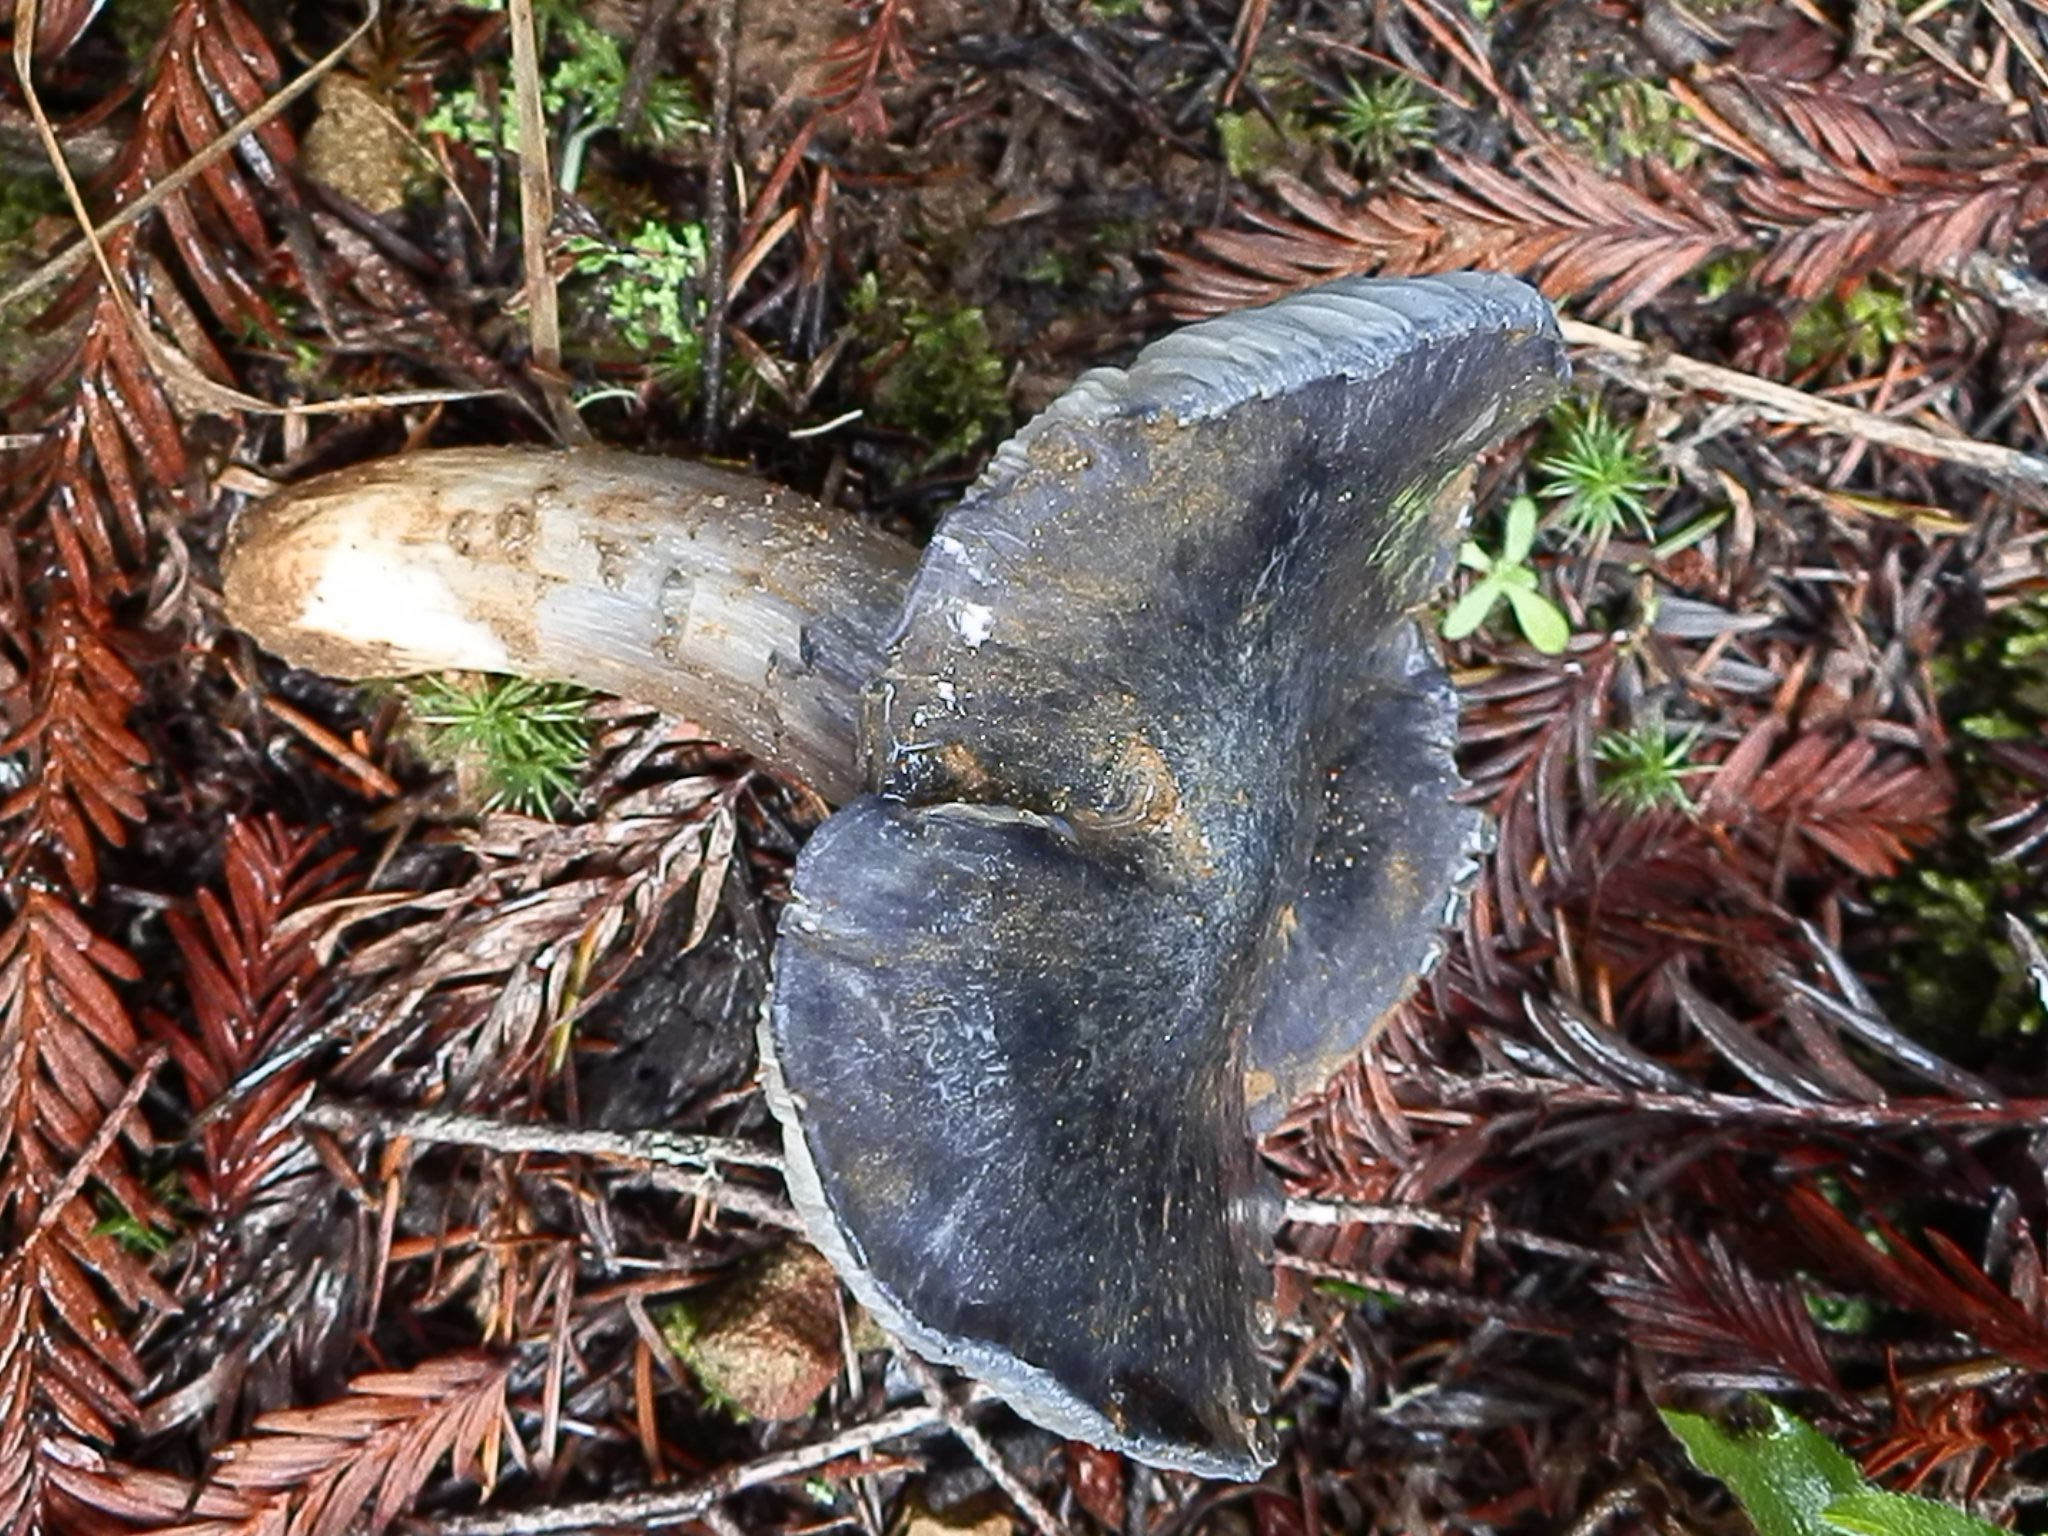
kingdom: Fungi
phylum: Basidiomycota
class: Agaricomycetes
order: Agaricales
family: Entolomataceae
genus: Entoloma
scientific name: Entoloma medianox
